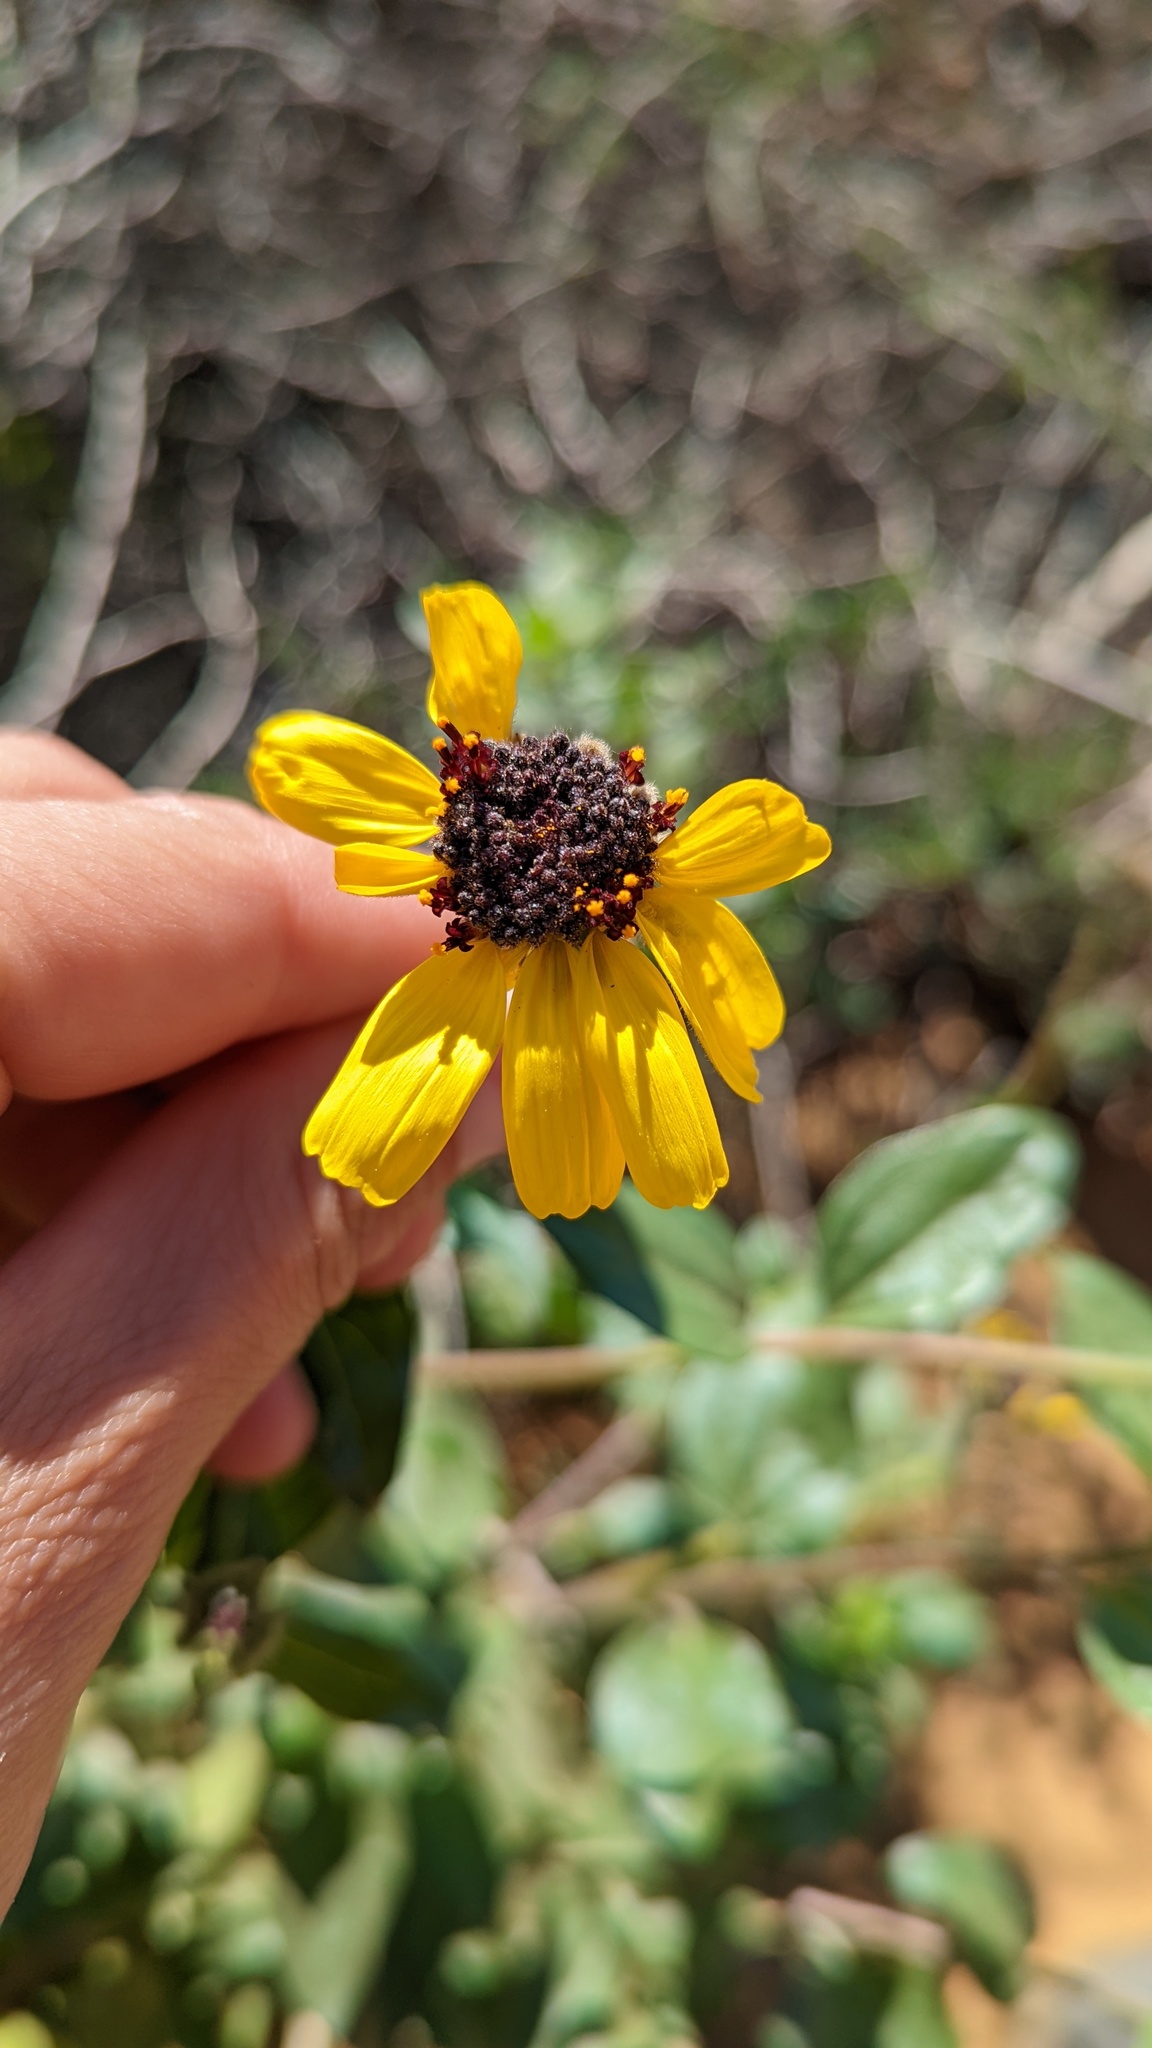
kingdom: Plantae
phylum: Tracheophyta
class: Magnoliopsida
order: Asterales
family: Asteraceae
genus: Encelia
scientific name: Encelia californica
